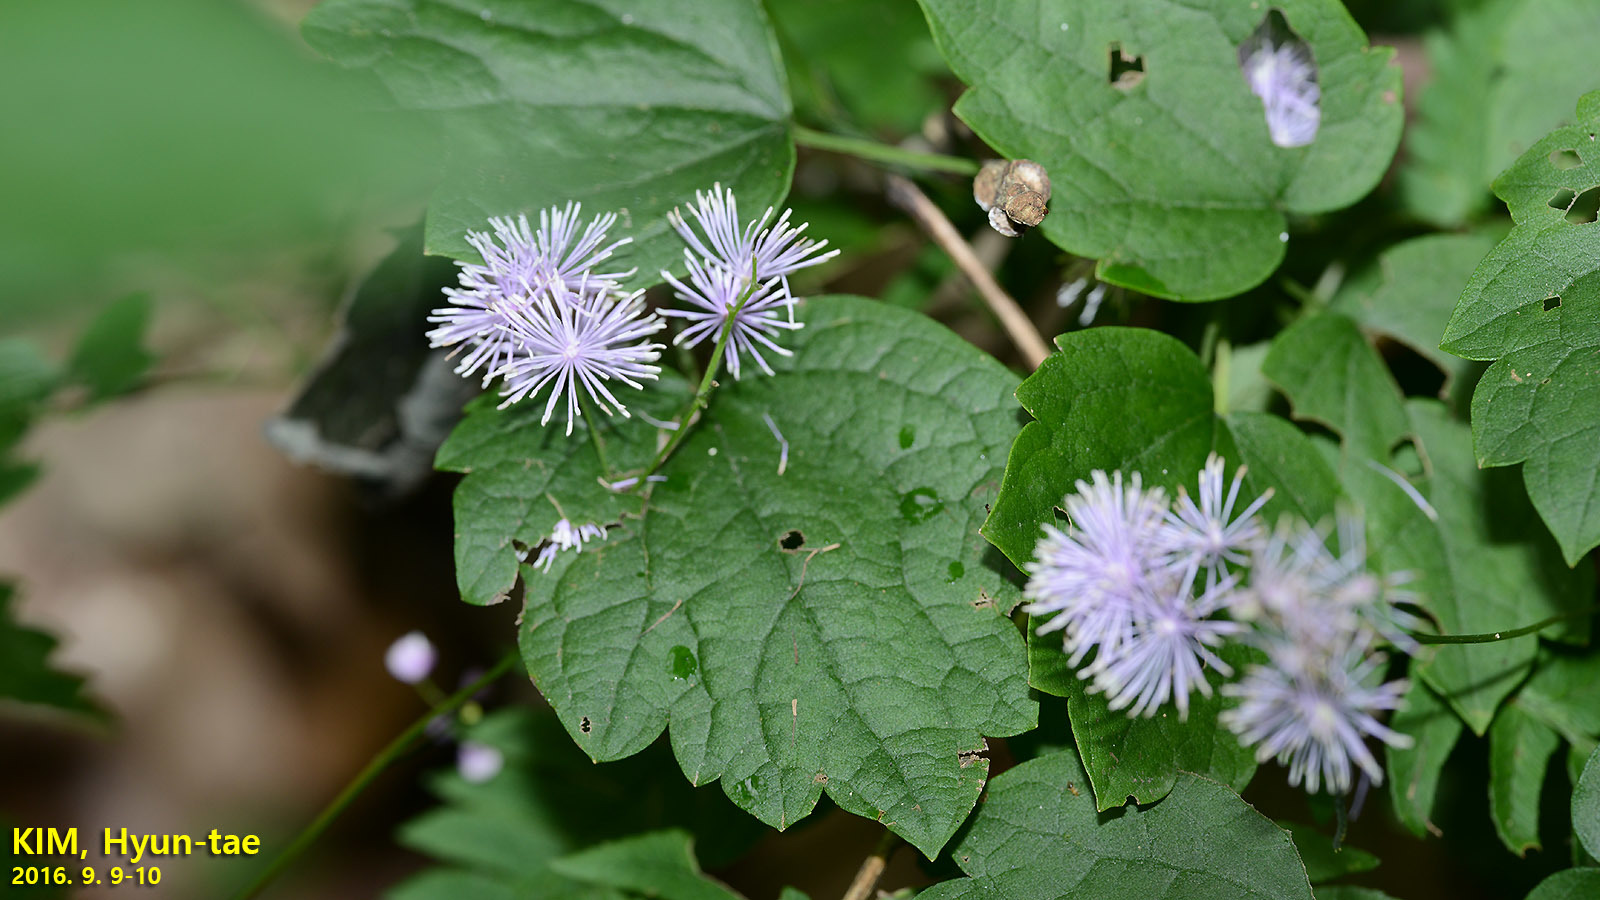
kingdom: Plantae
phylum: Tracheophyta
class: Magnoliopsida
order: Ranunculales
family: Ranunculaceae
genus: Thalictrum
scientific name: Thalictrum actaeifolium
